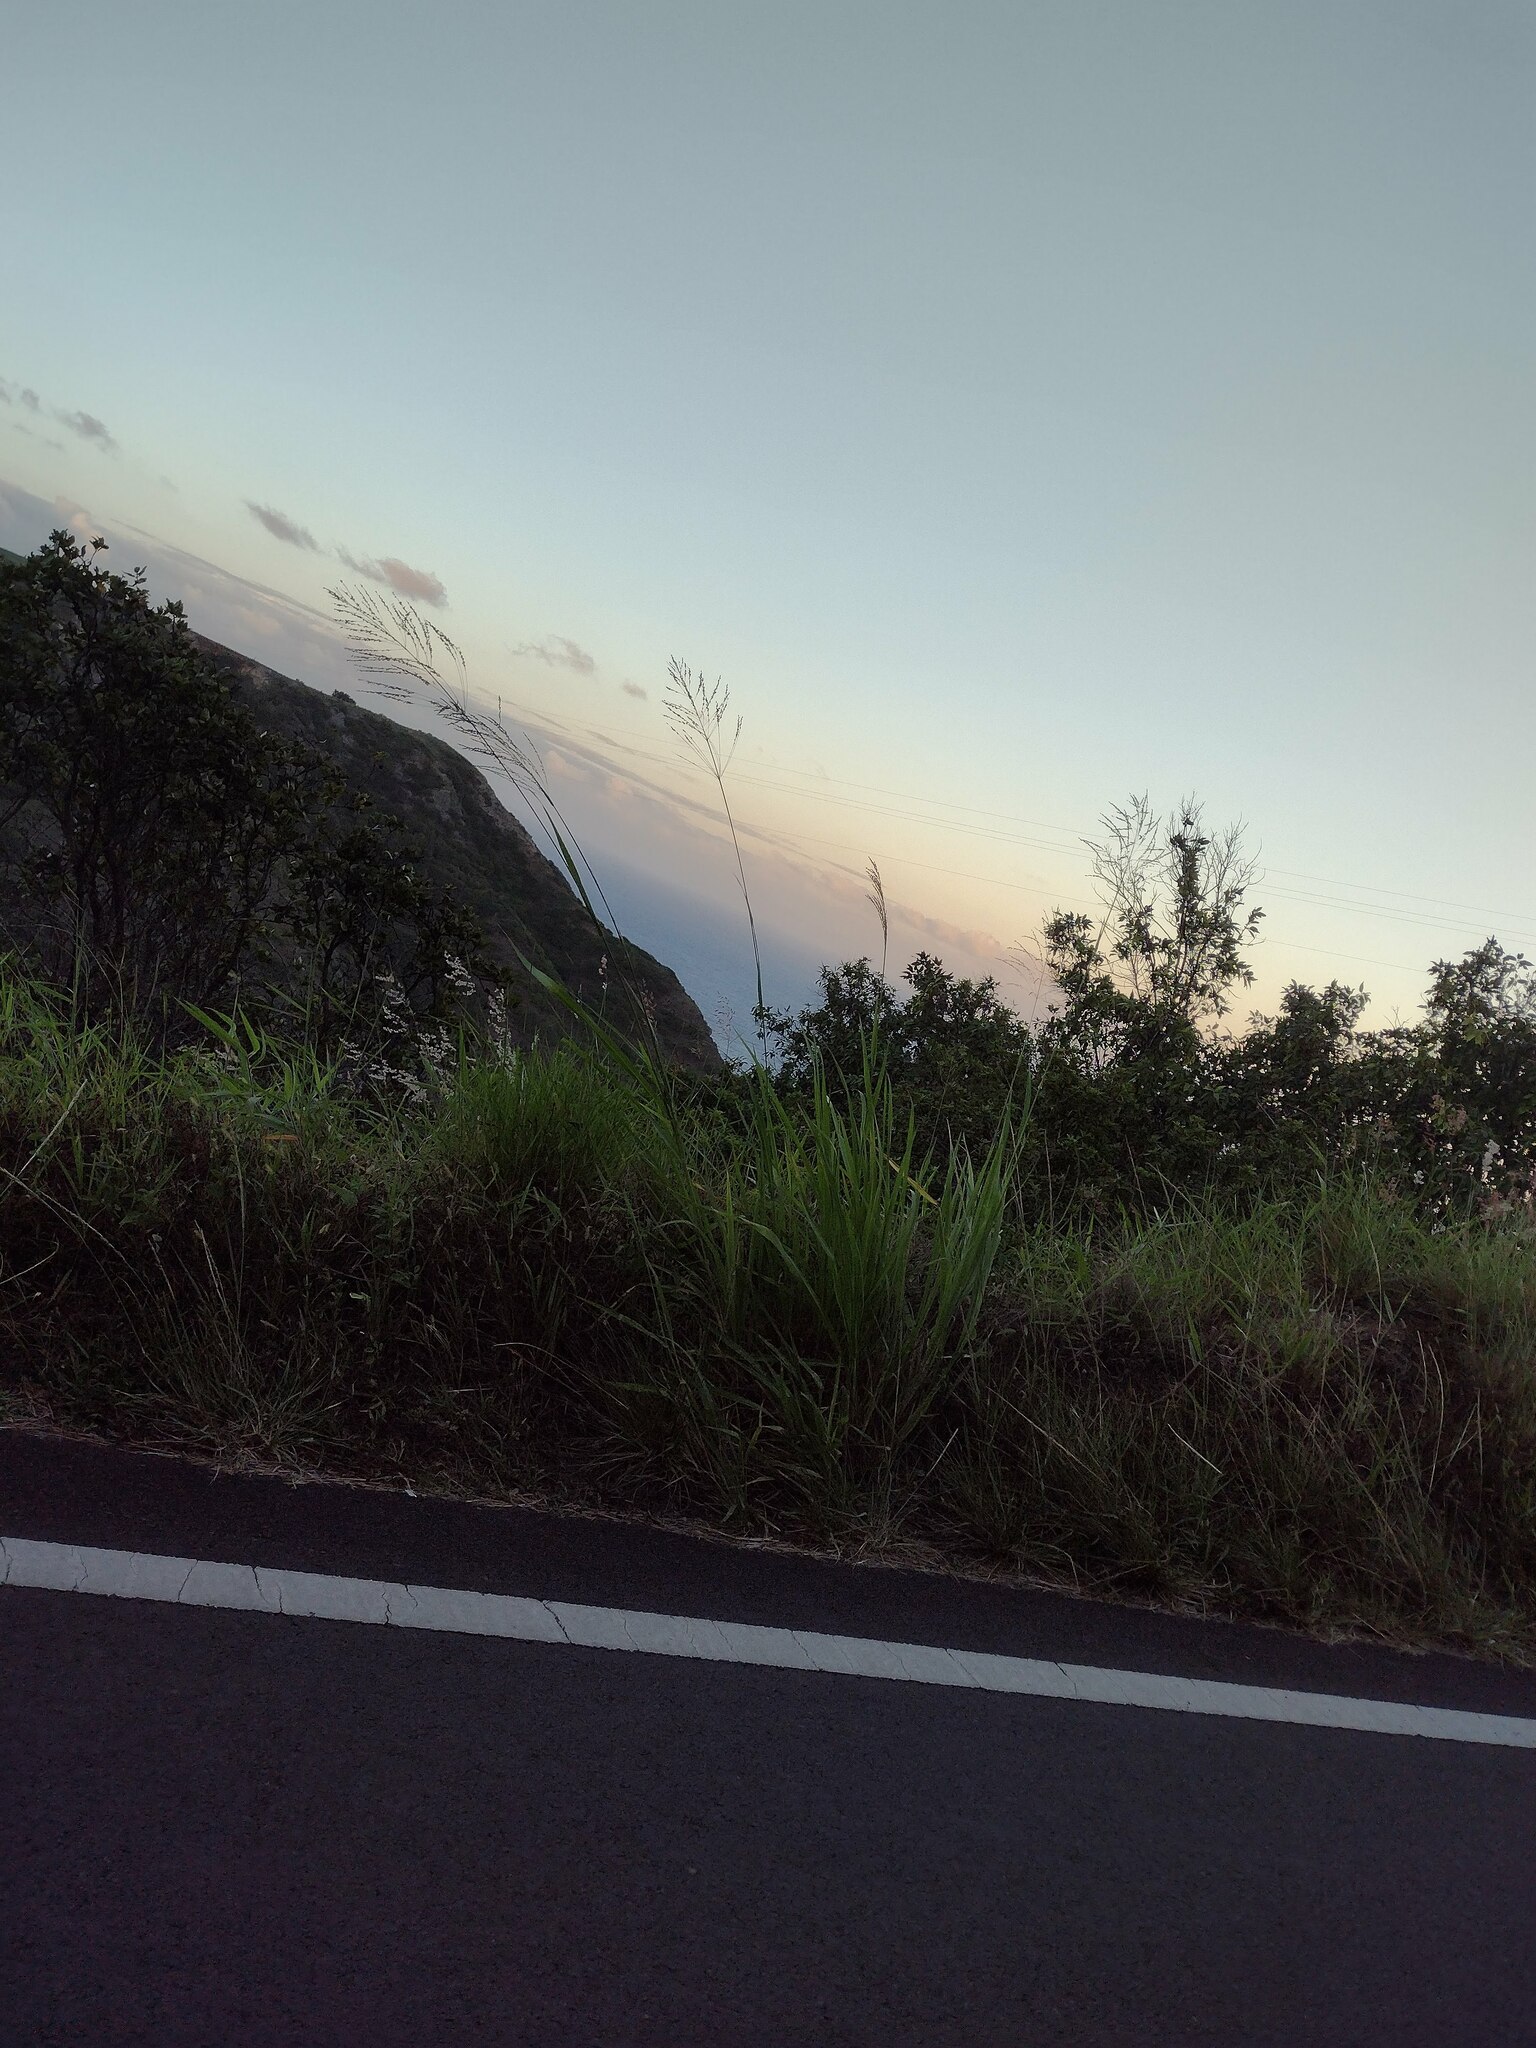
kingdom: Plantae
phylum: Tracheophyta
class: Liliopsida
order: Poales
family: Poaceae
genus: Megathyrsus
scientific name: Megathyrsus maximus
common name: Guineagrass
